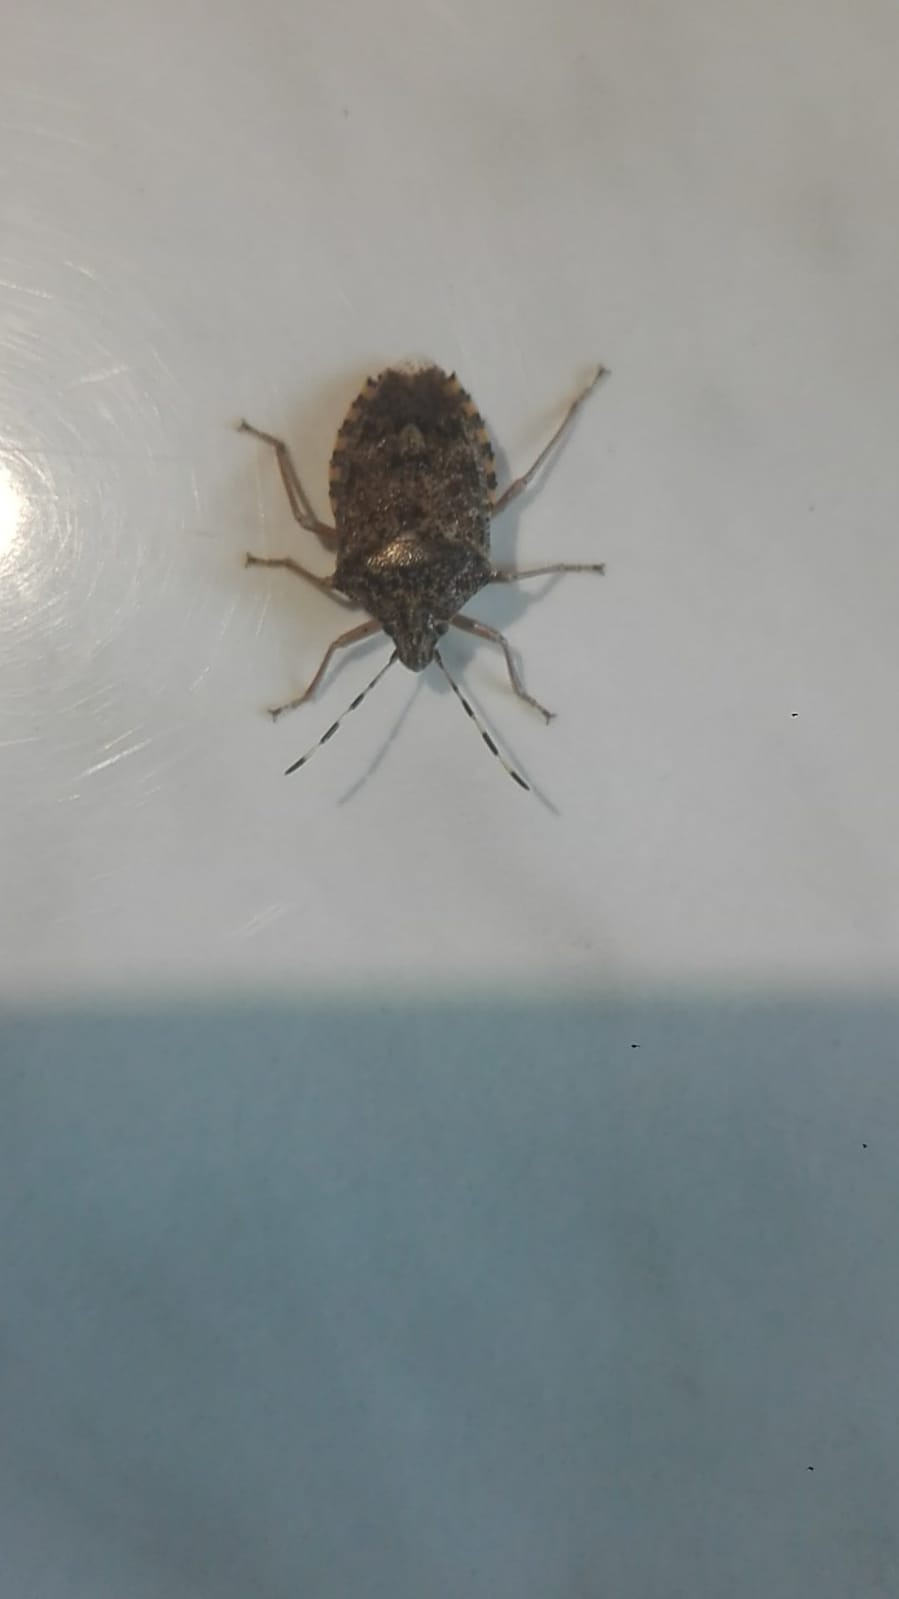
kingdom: Animalia
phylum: Arthropoda
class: Insecta
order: Hemiptera
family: Pentatomidae
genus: Rhaphigaster
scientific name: Rhaphigaster nebulosa
